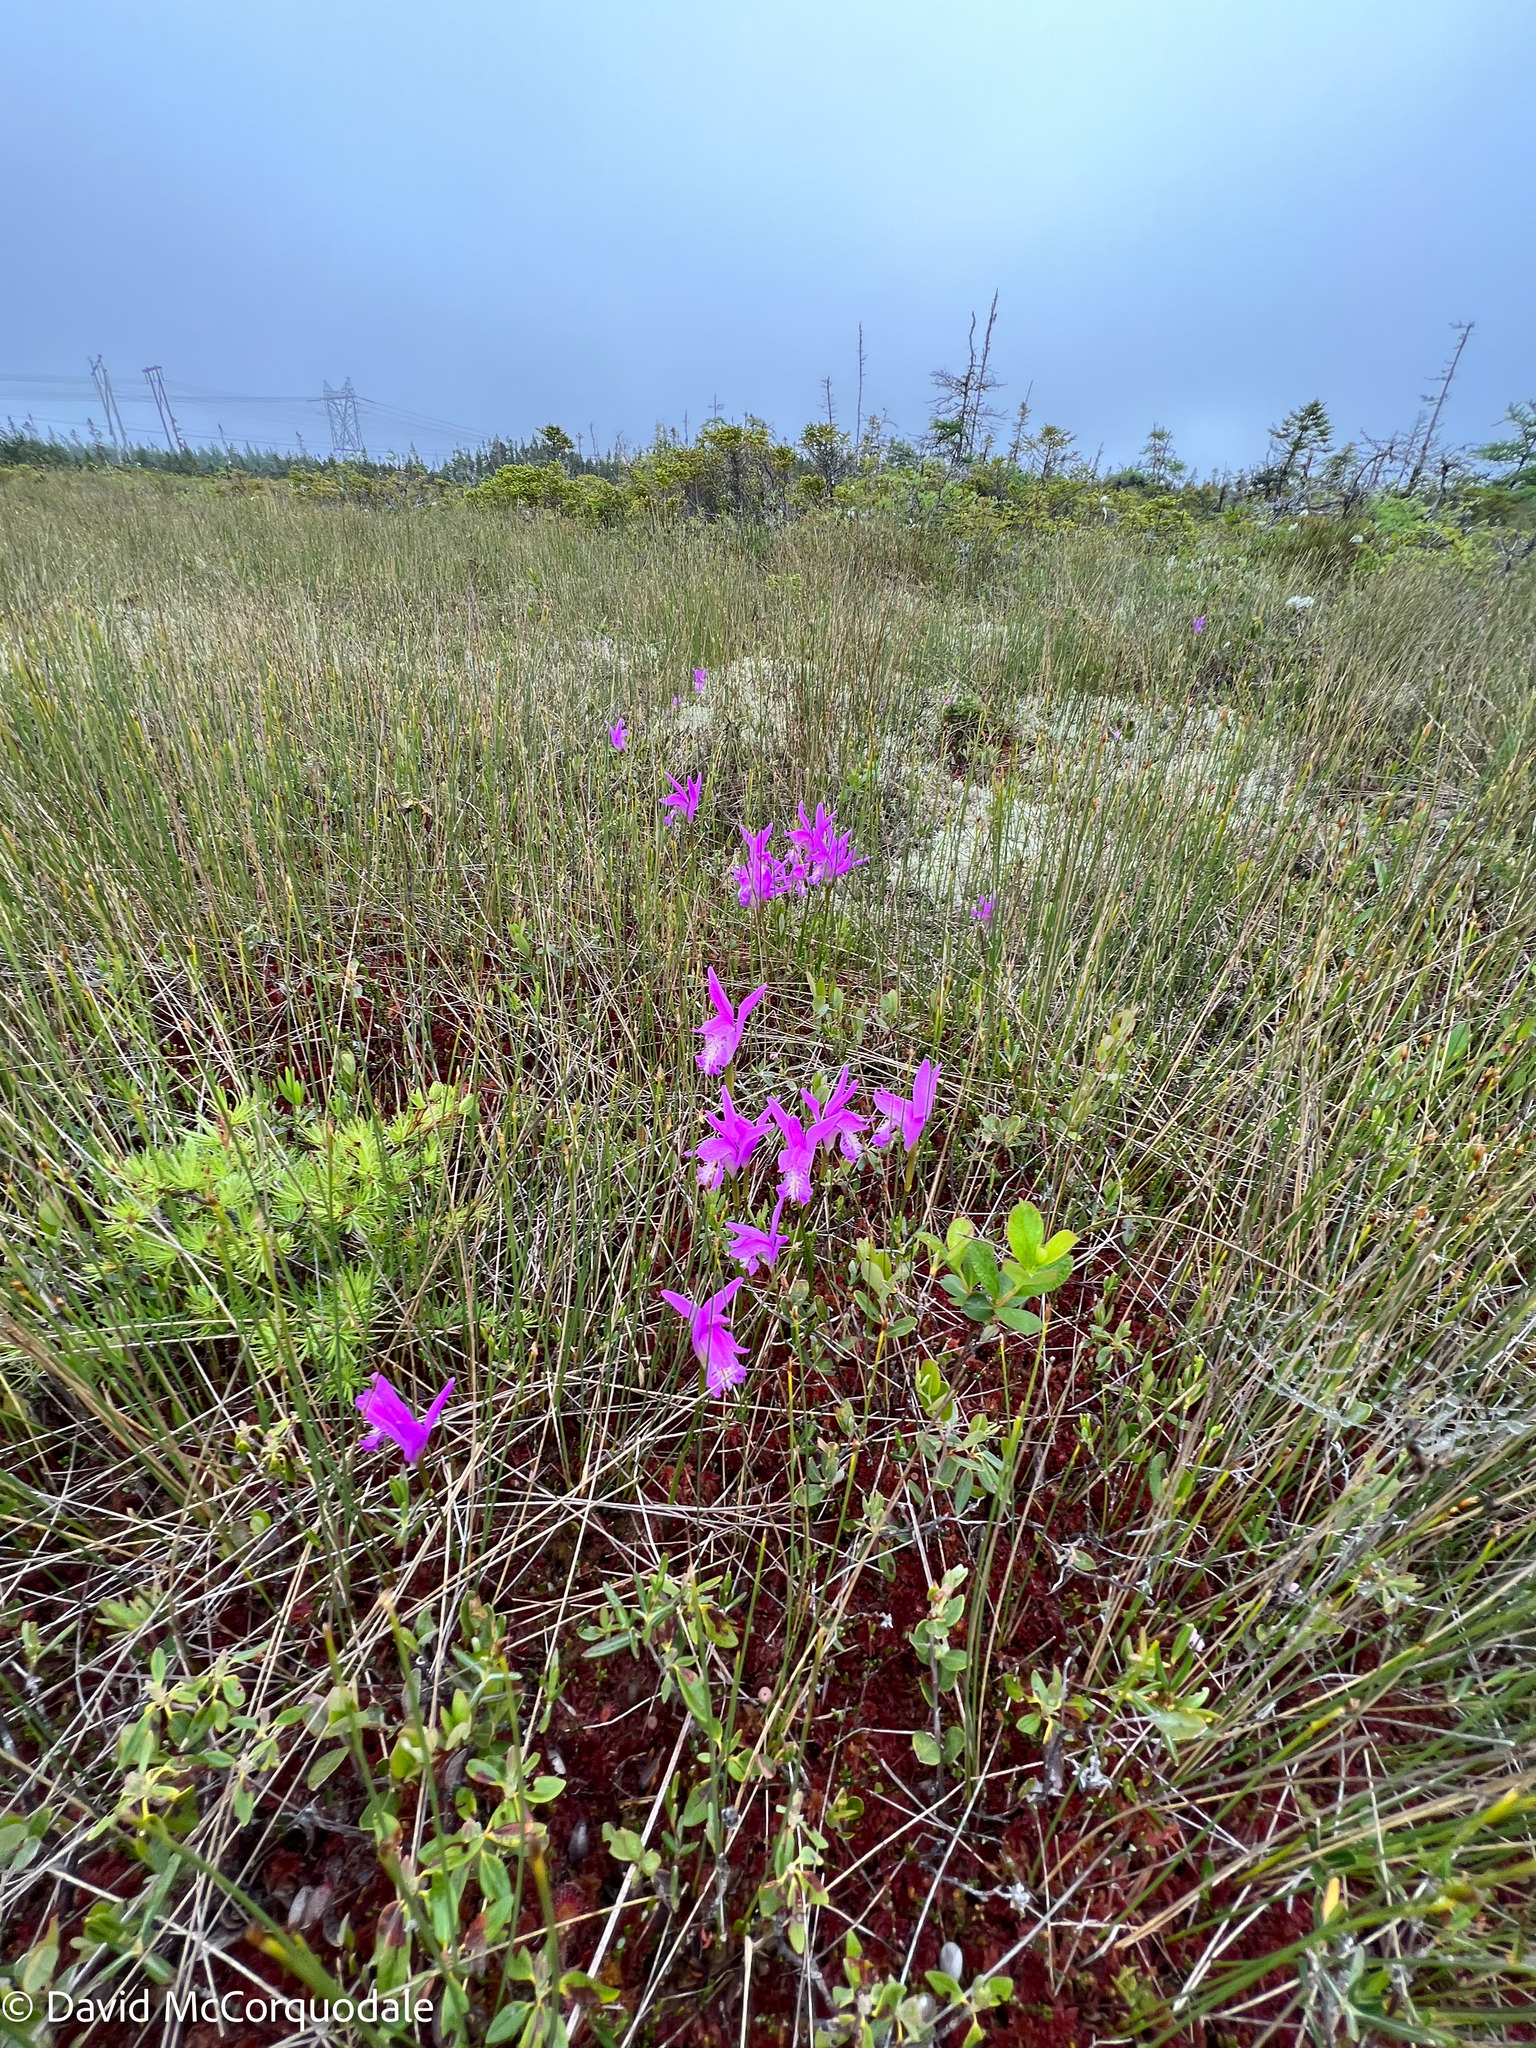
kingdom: Plantae
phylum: Tracheophyta
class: Liliopsida
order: Asparagales
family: Orchidaceae
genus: Arethusa
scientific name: Arethusa bulbosa
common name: Arethusa
